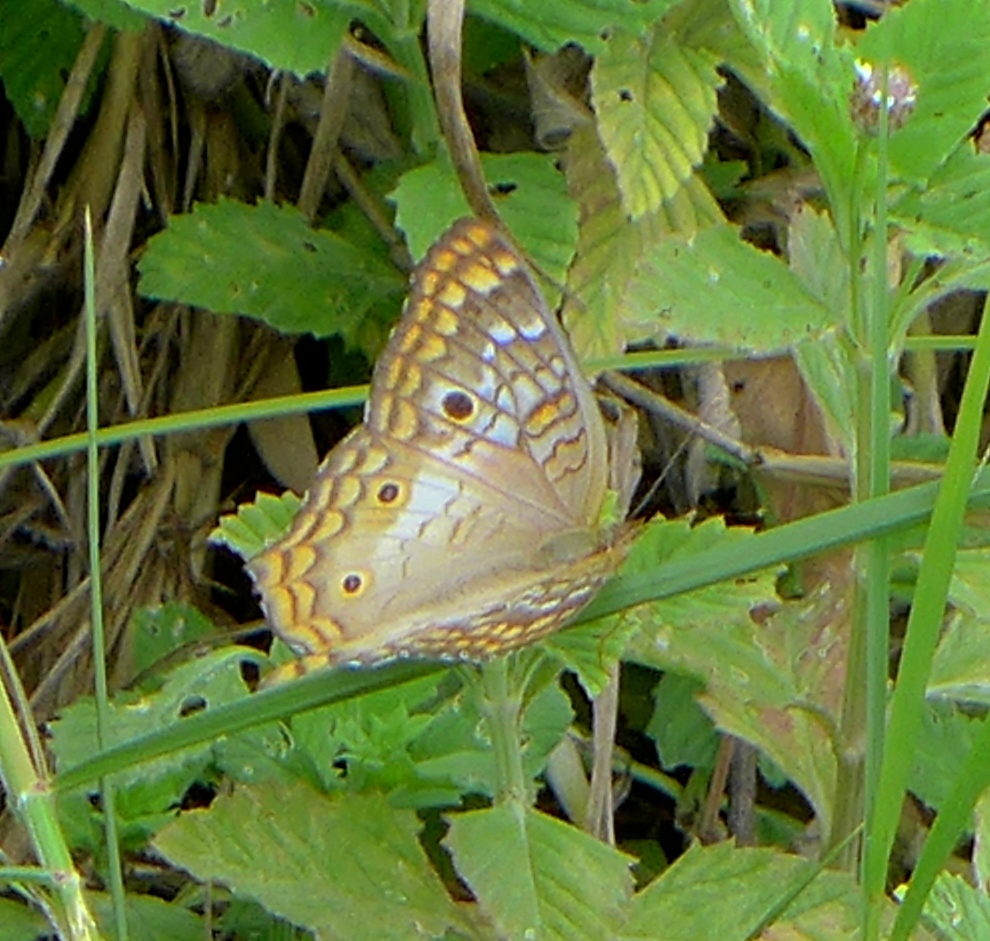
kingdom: Animalia
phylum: Arthropoda
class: Insecta
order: Lepidoptera
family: Nymphalidae
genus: Anartia
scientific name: Anartia jatrophae
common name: White peacock
